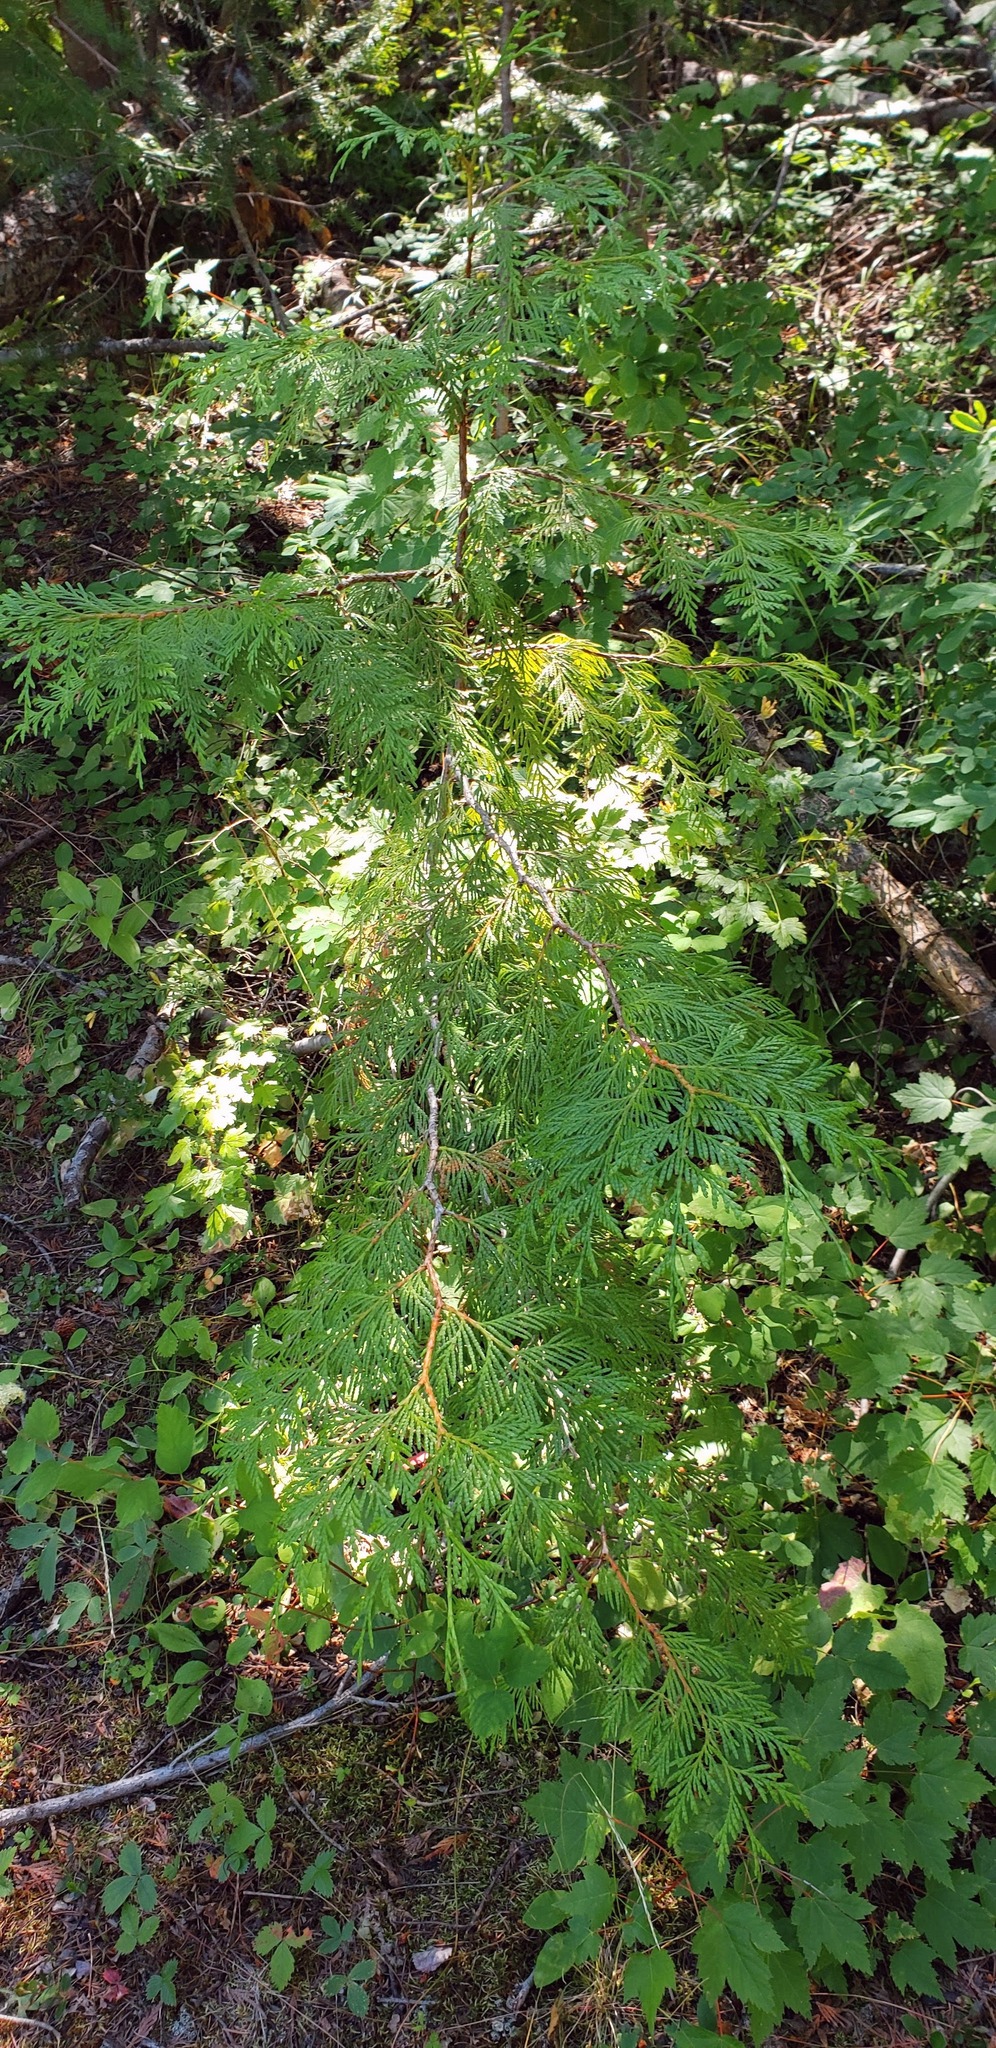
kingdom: Plantae
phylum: Tracheophyta
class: Pinopsida
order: Pinales
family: Cupressaceae
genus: Thuja
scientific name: Thuja plicata
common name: Western red-cedar
